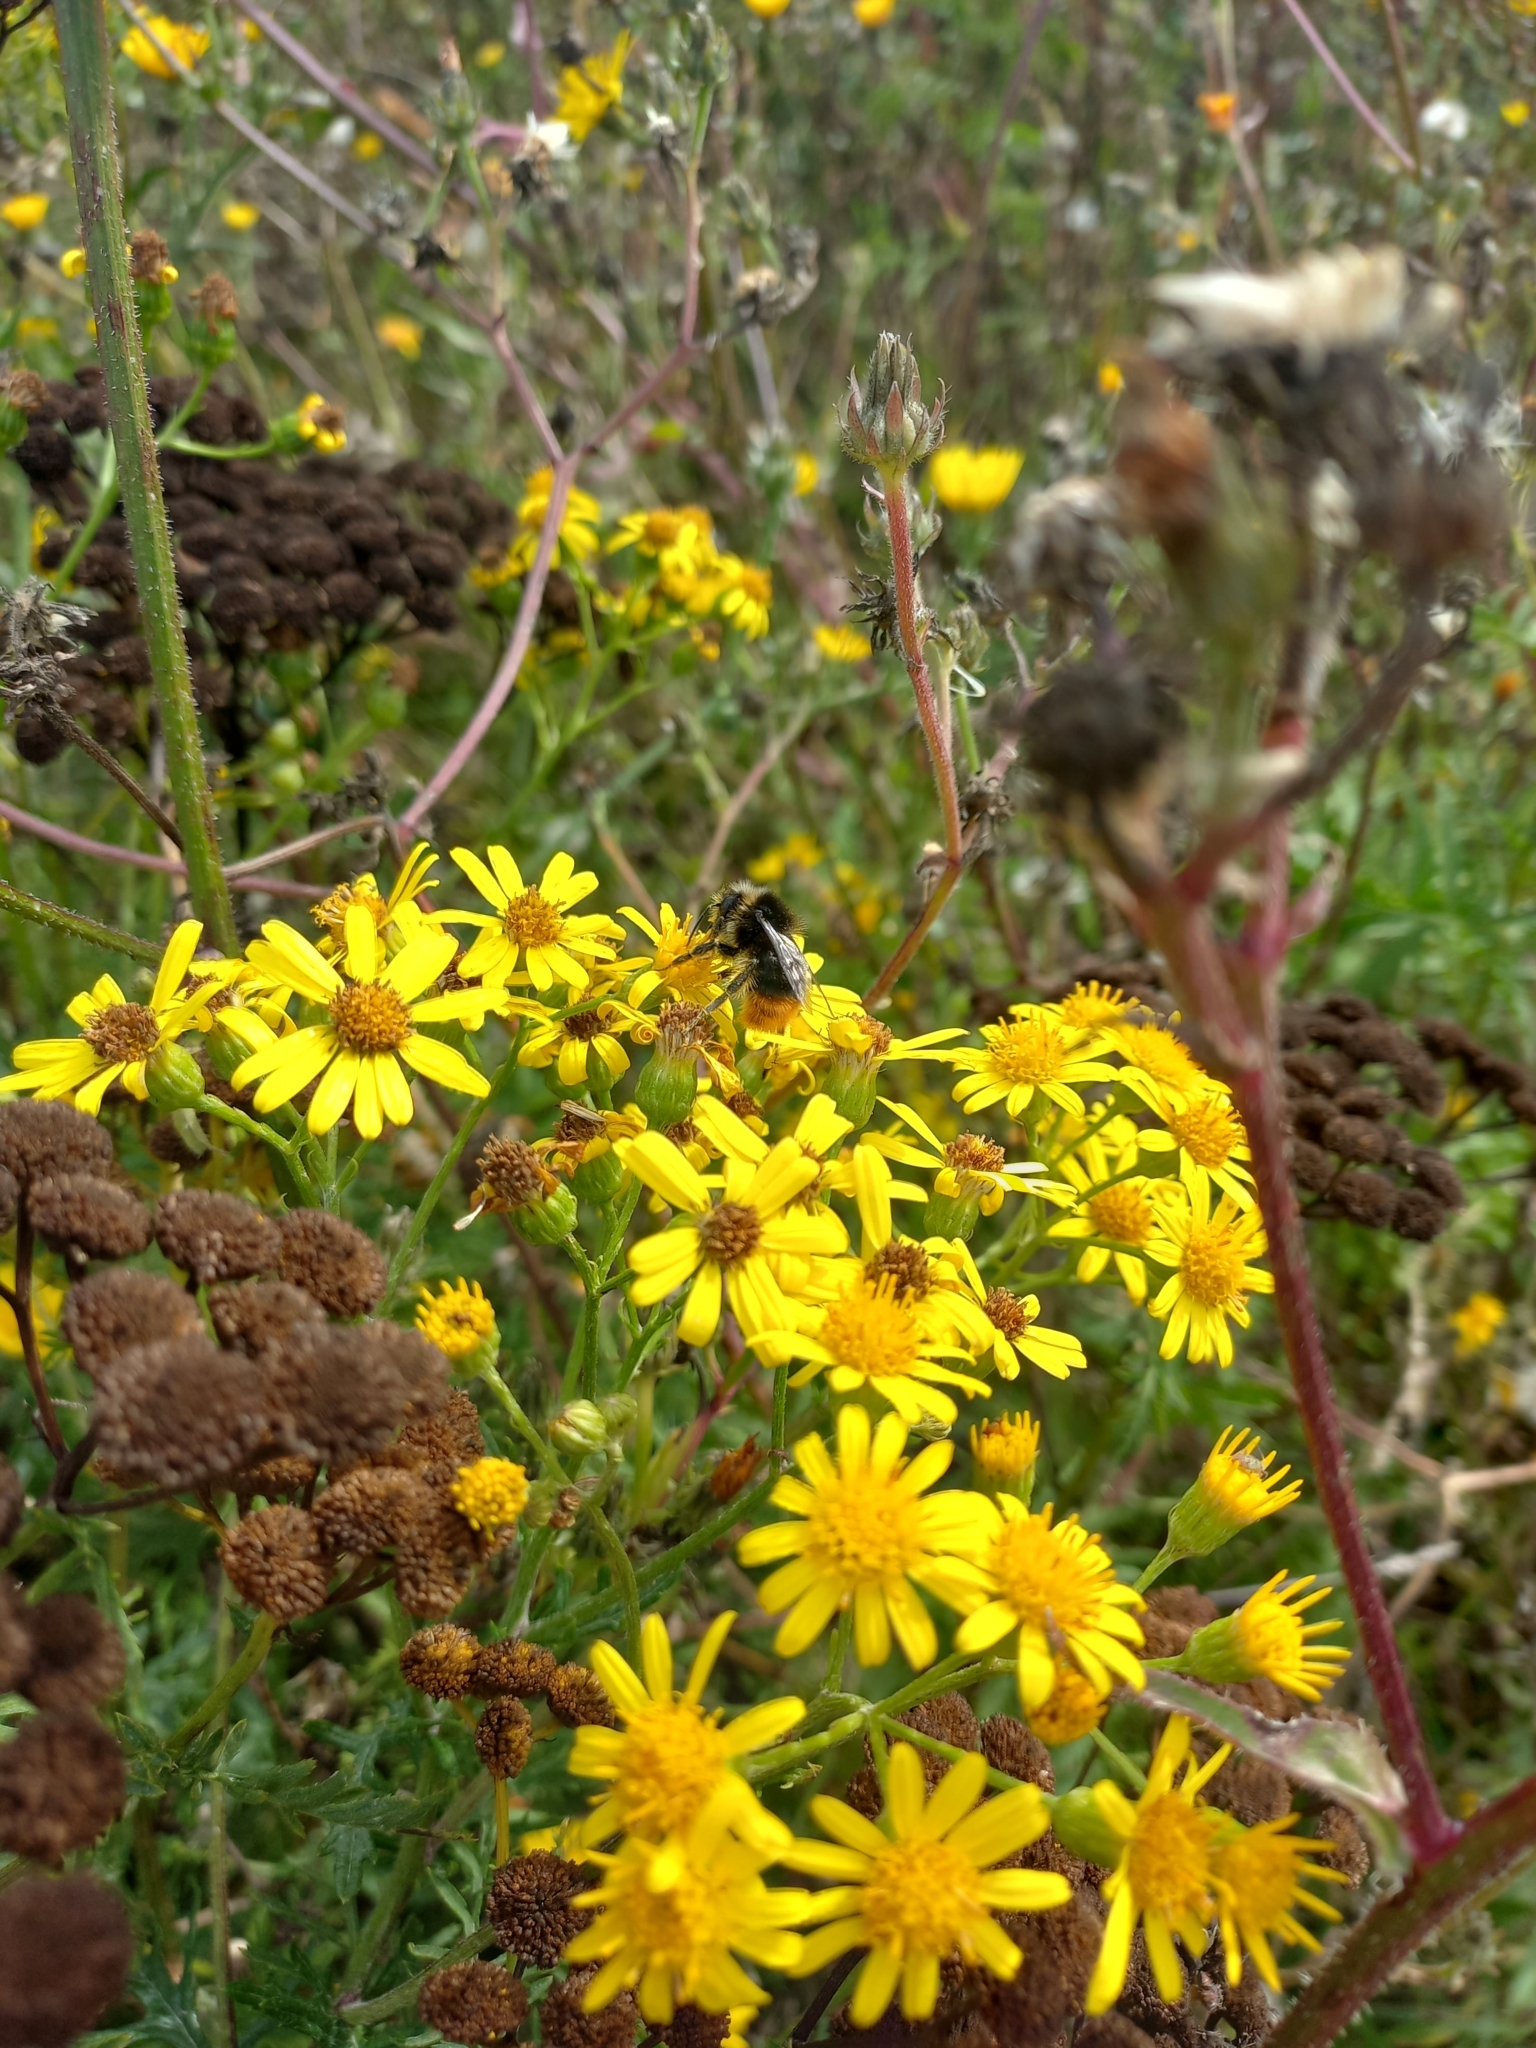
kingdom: Animalia
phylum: Arthropoda
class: Insecta
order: Hymenoptera
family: Apidae
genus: Bombus
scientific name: Bombus lapidarius
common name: Large red-tailed humble-bee
